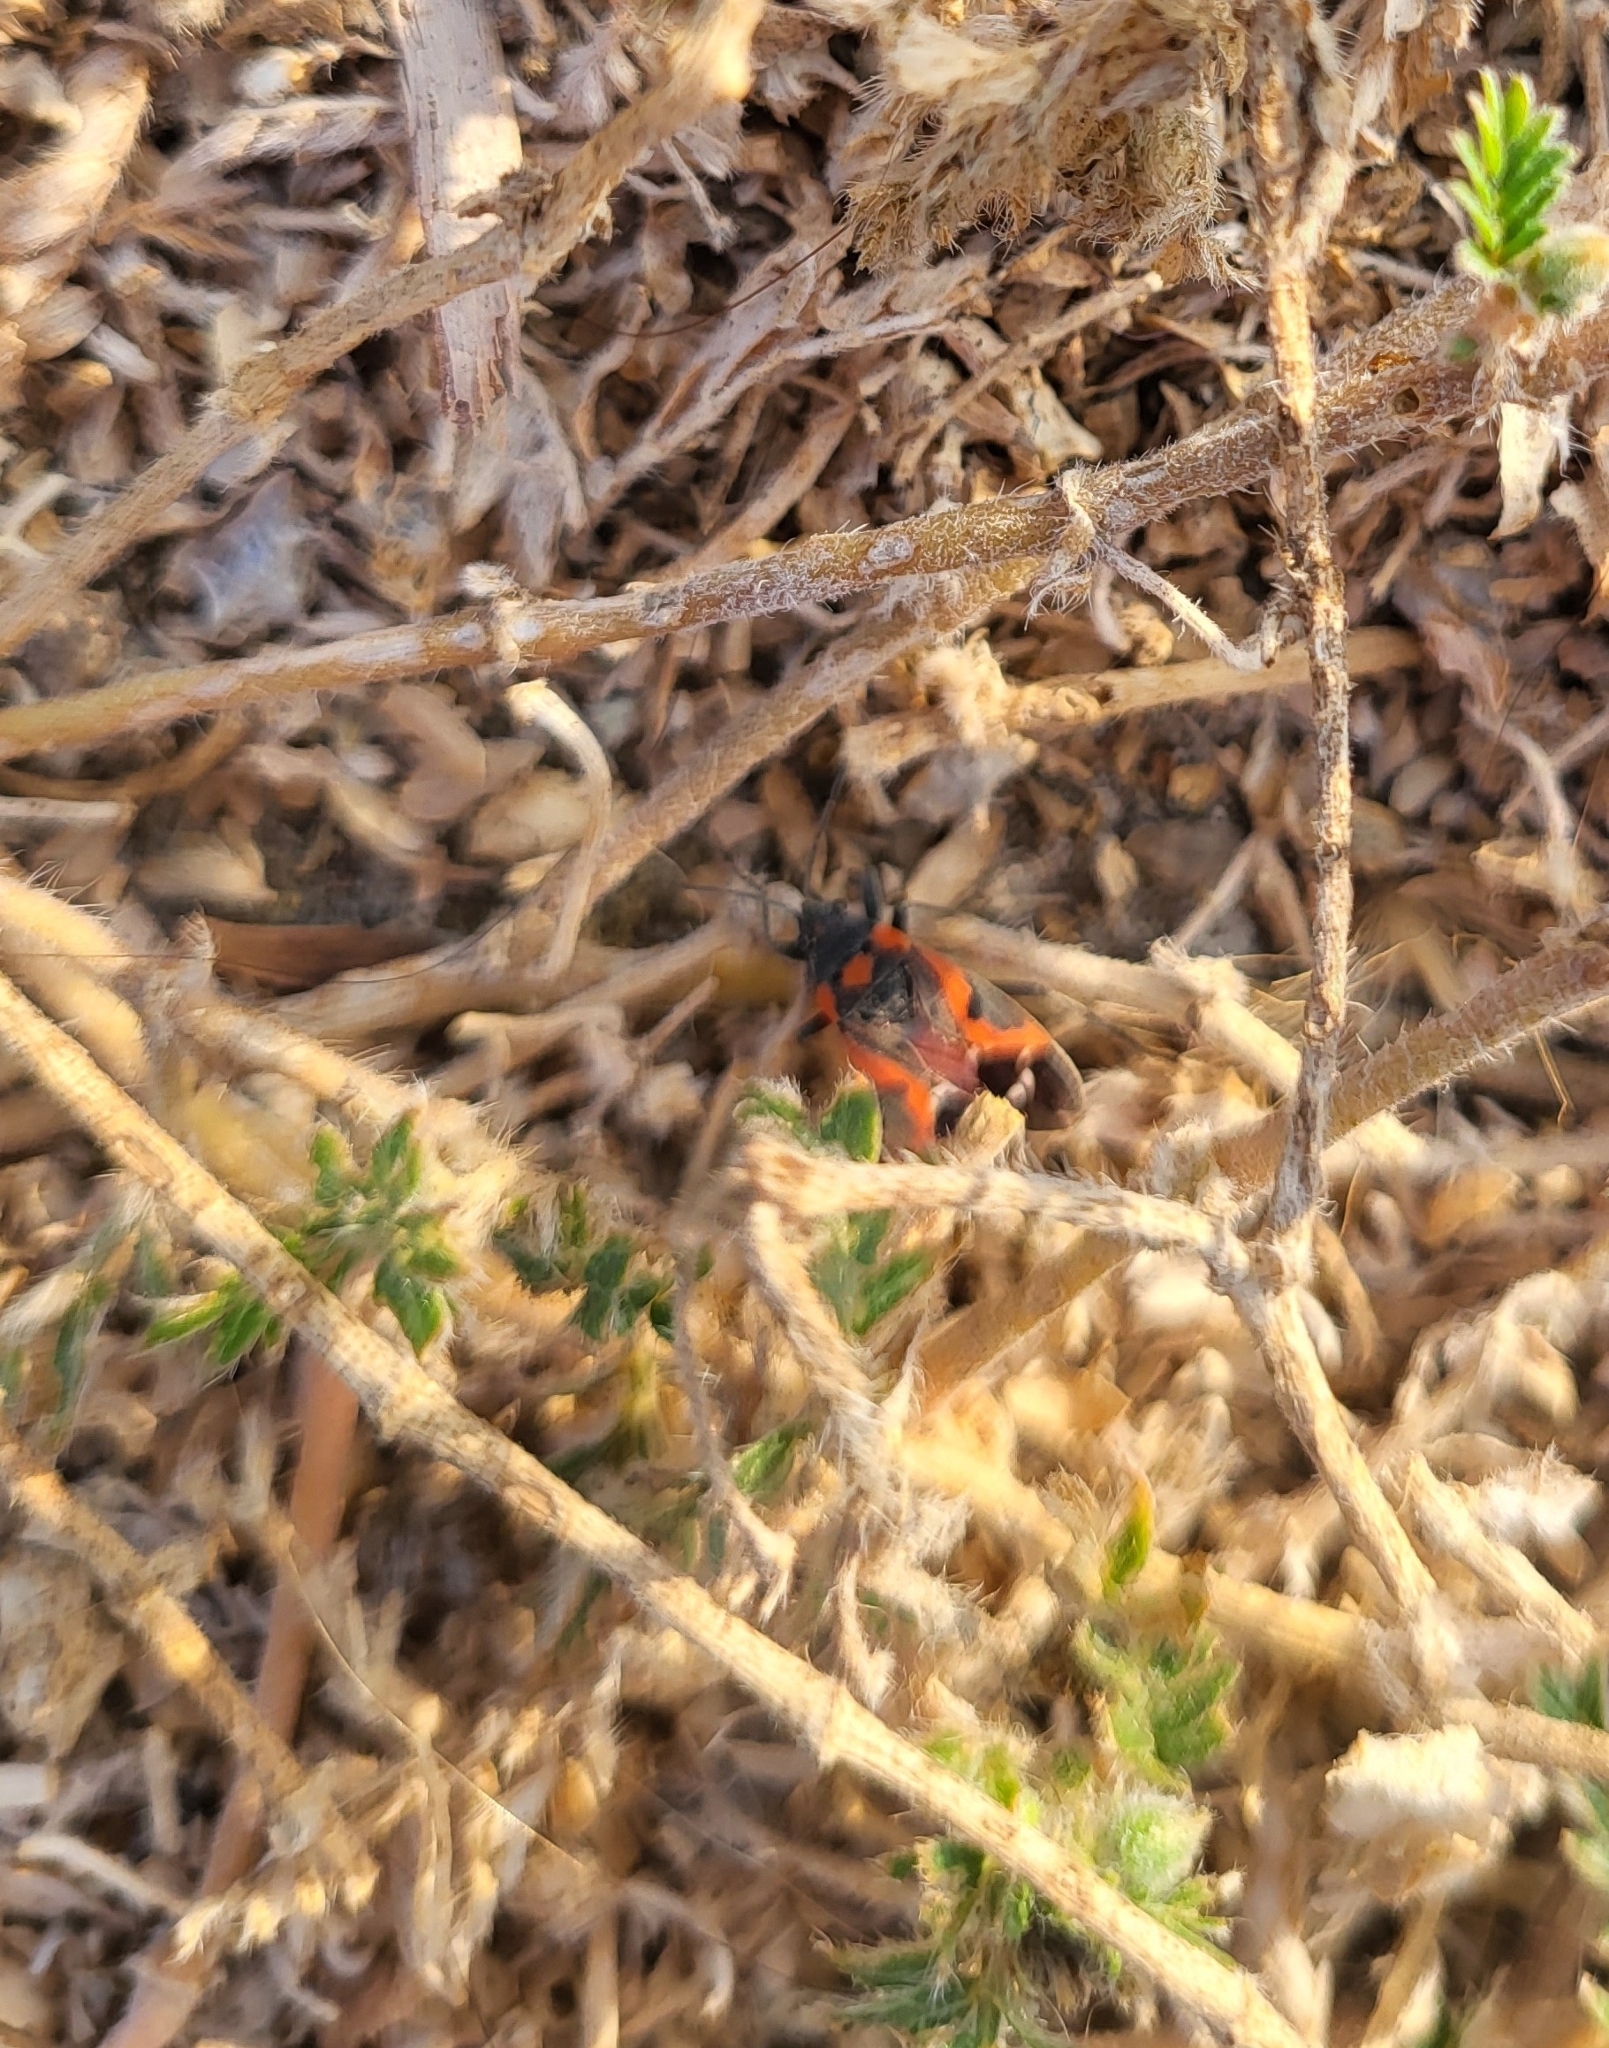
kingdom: Animalia
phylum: Arthropoda
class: Insecta
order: Hemiptera
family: Lygaeidae
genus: Lygaeus
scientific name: Lygaeus kalmii
